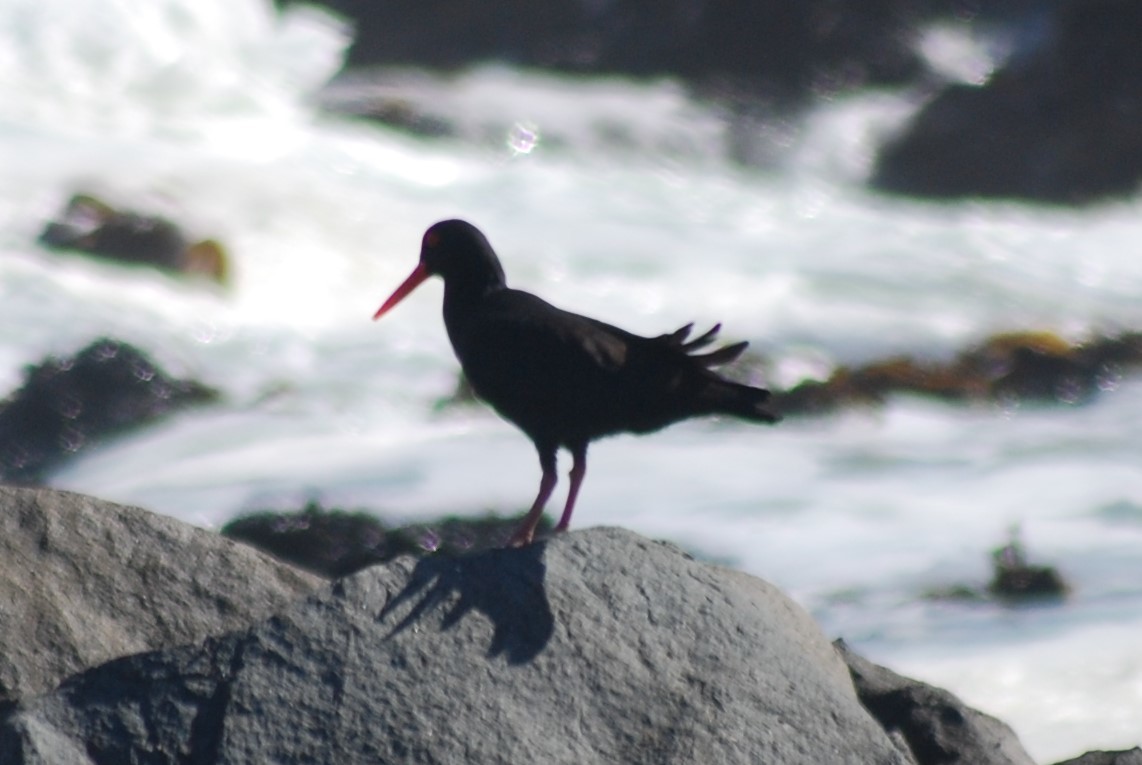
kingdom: Animalia
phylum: Chordata
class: Aves
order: Charadriiformes
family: Haematopodidae
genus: Haematopus
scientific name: Haematopus moquini
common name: African oystercatcher
